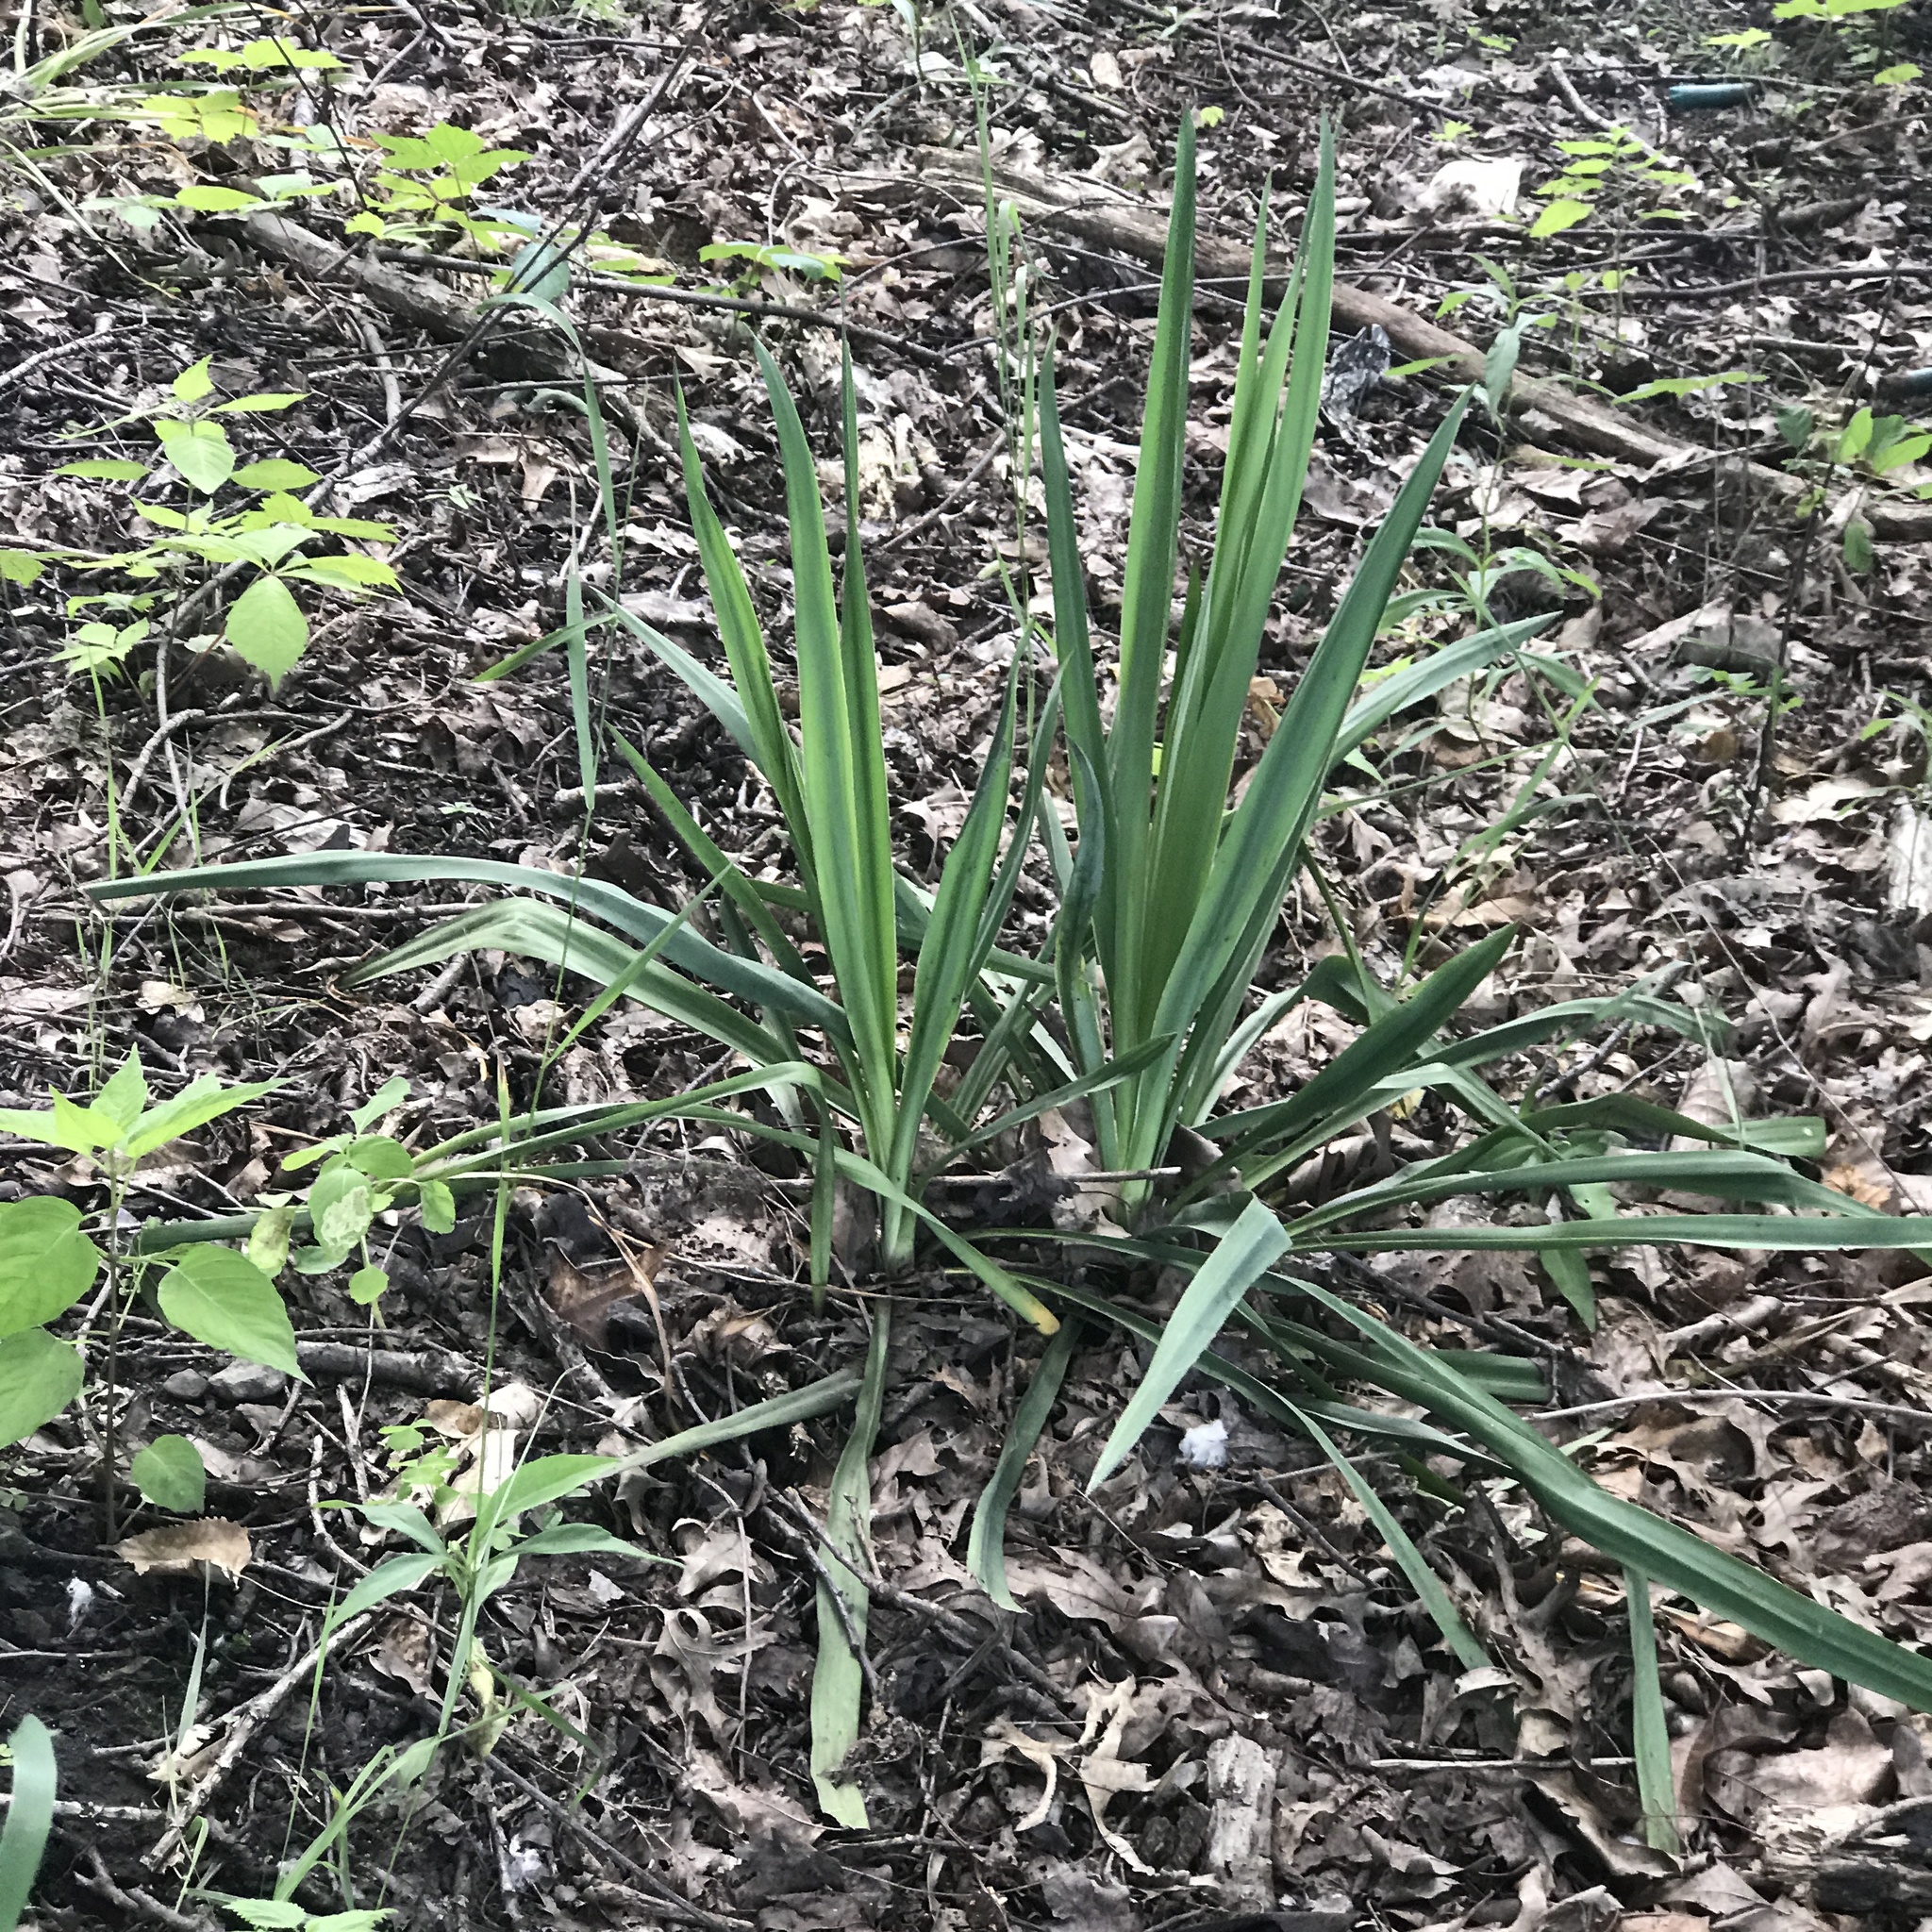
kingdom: Plantae
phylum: Tracheophyta
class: Liliopsida
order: Asparagales
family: Asparagaceae
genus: Yucca
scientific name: Yucca filamentosa
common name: Adam's-needle
